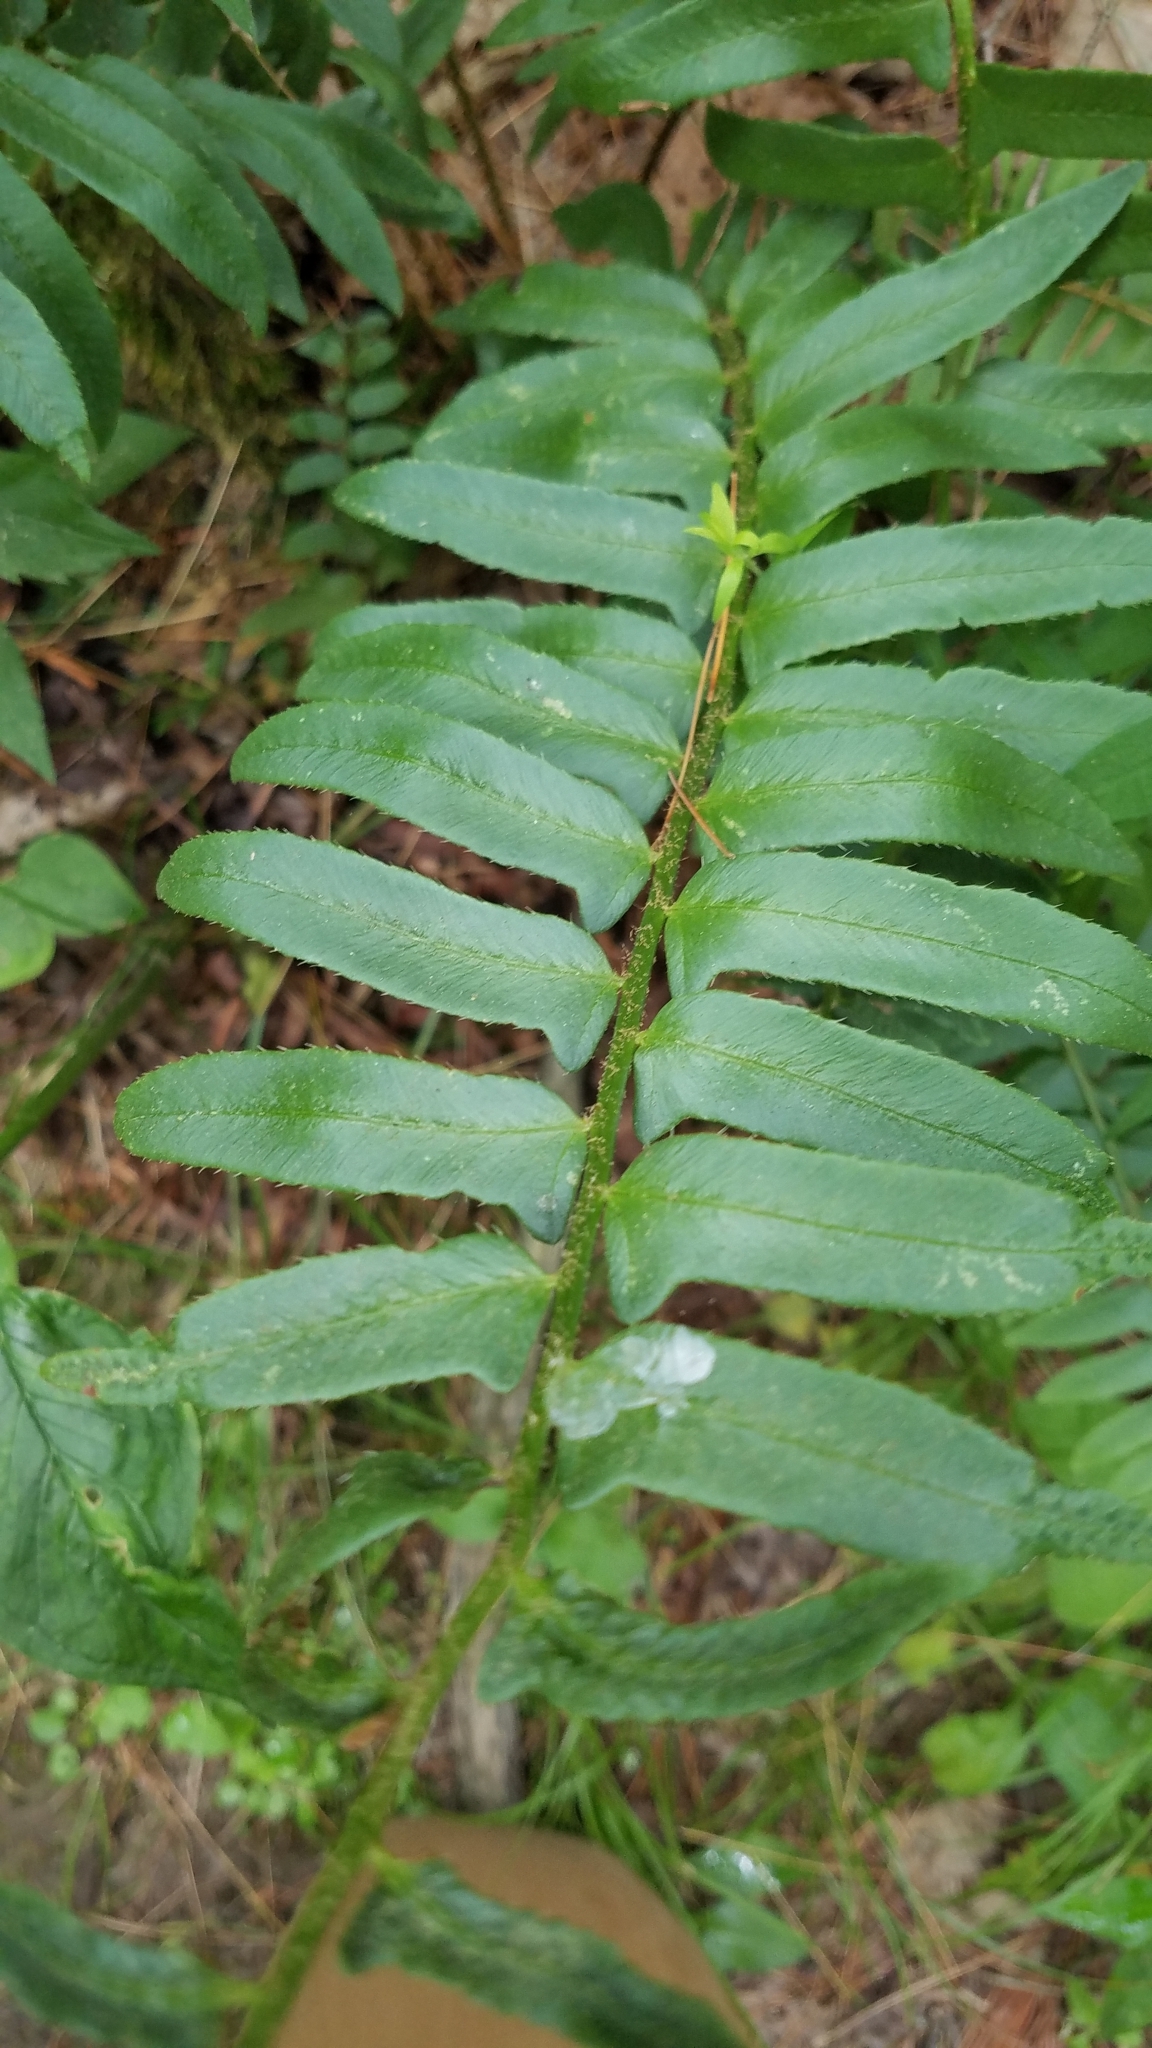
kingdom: Plantae
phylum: Tracheophyta
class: Polypodiopsida
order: Polypodiales
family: Dryopteridaceae
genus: Polystichum
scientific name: Polystichum acrostichoides
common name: Christmas fern
